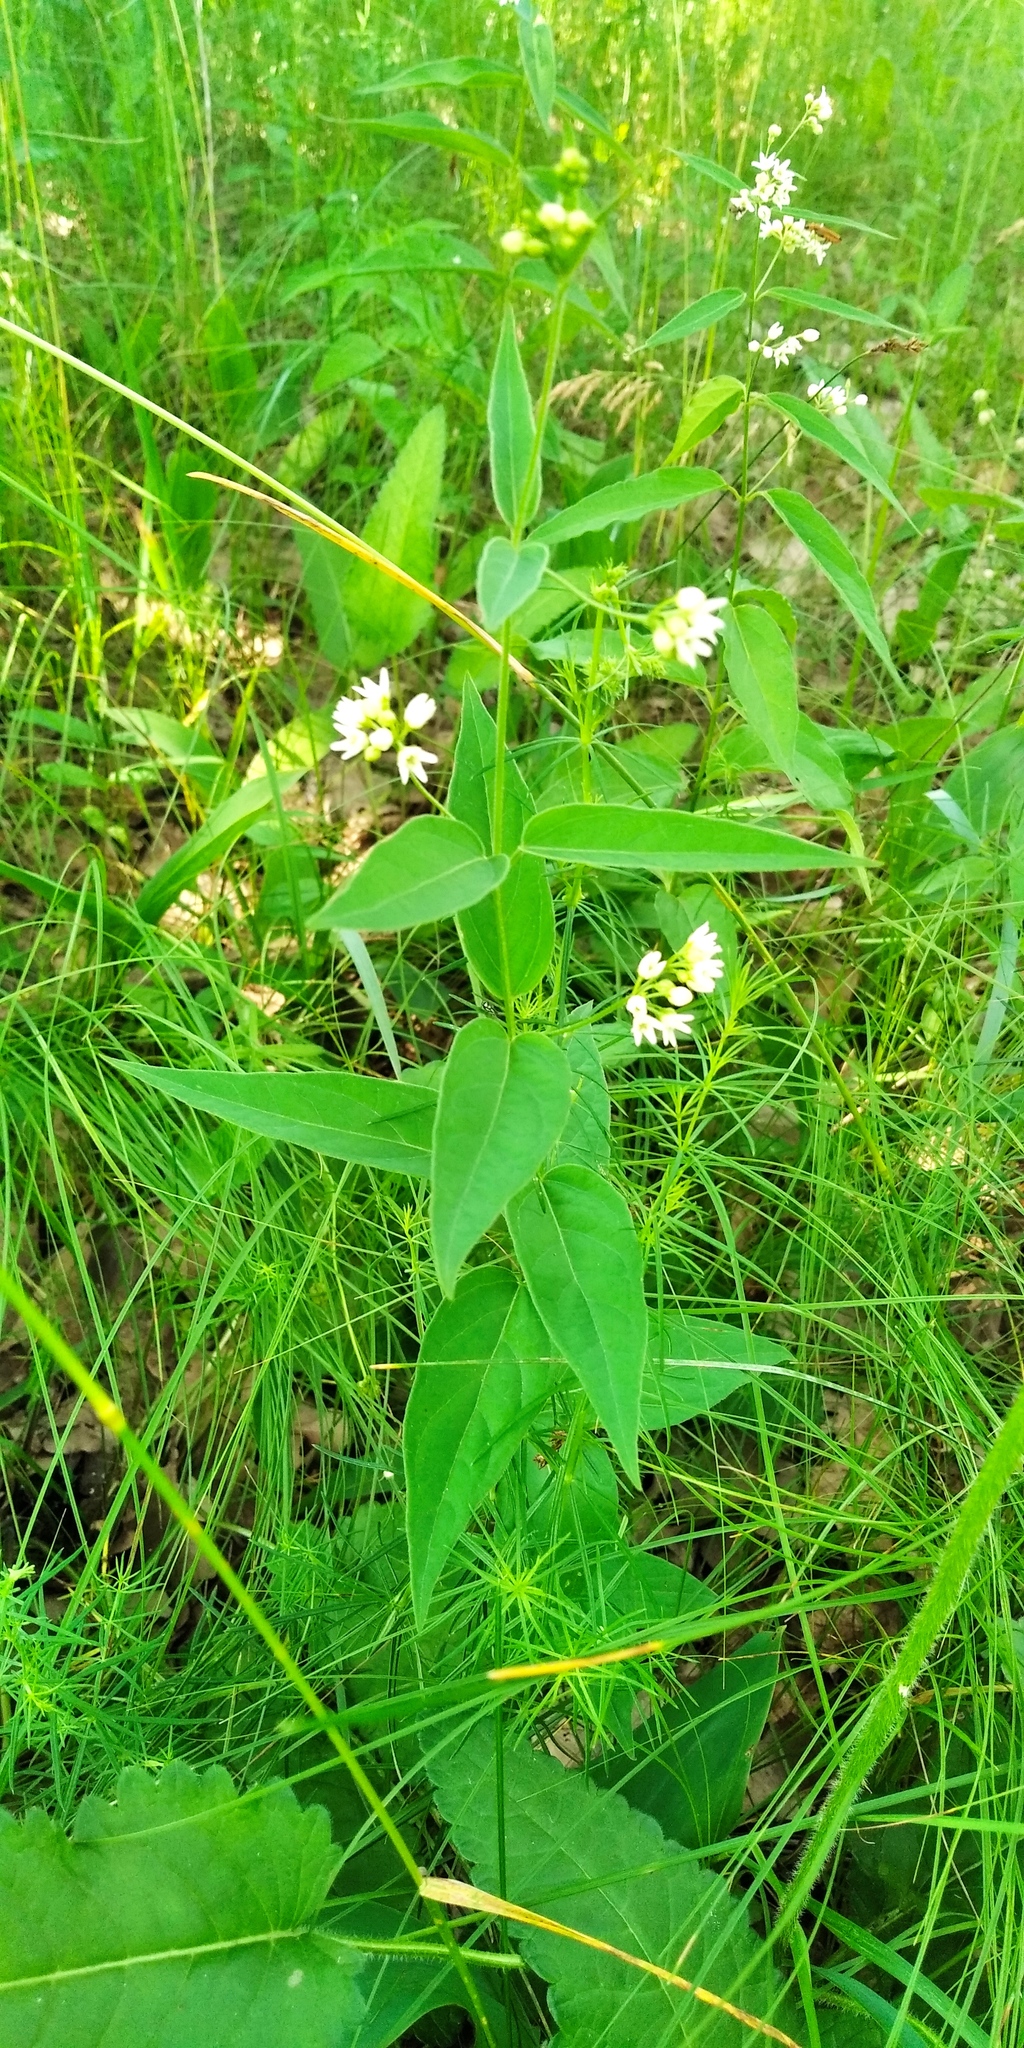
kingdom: Plantae
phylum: Tracheophyta
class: Magnoliopsida
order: Gentianales
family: Apocynaceae
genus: Vincetoxicum
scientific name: Vincetoxicum hirundinaria
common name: White swallowwort
